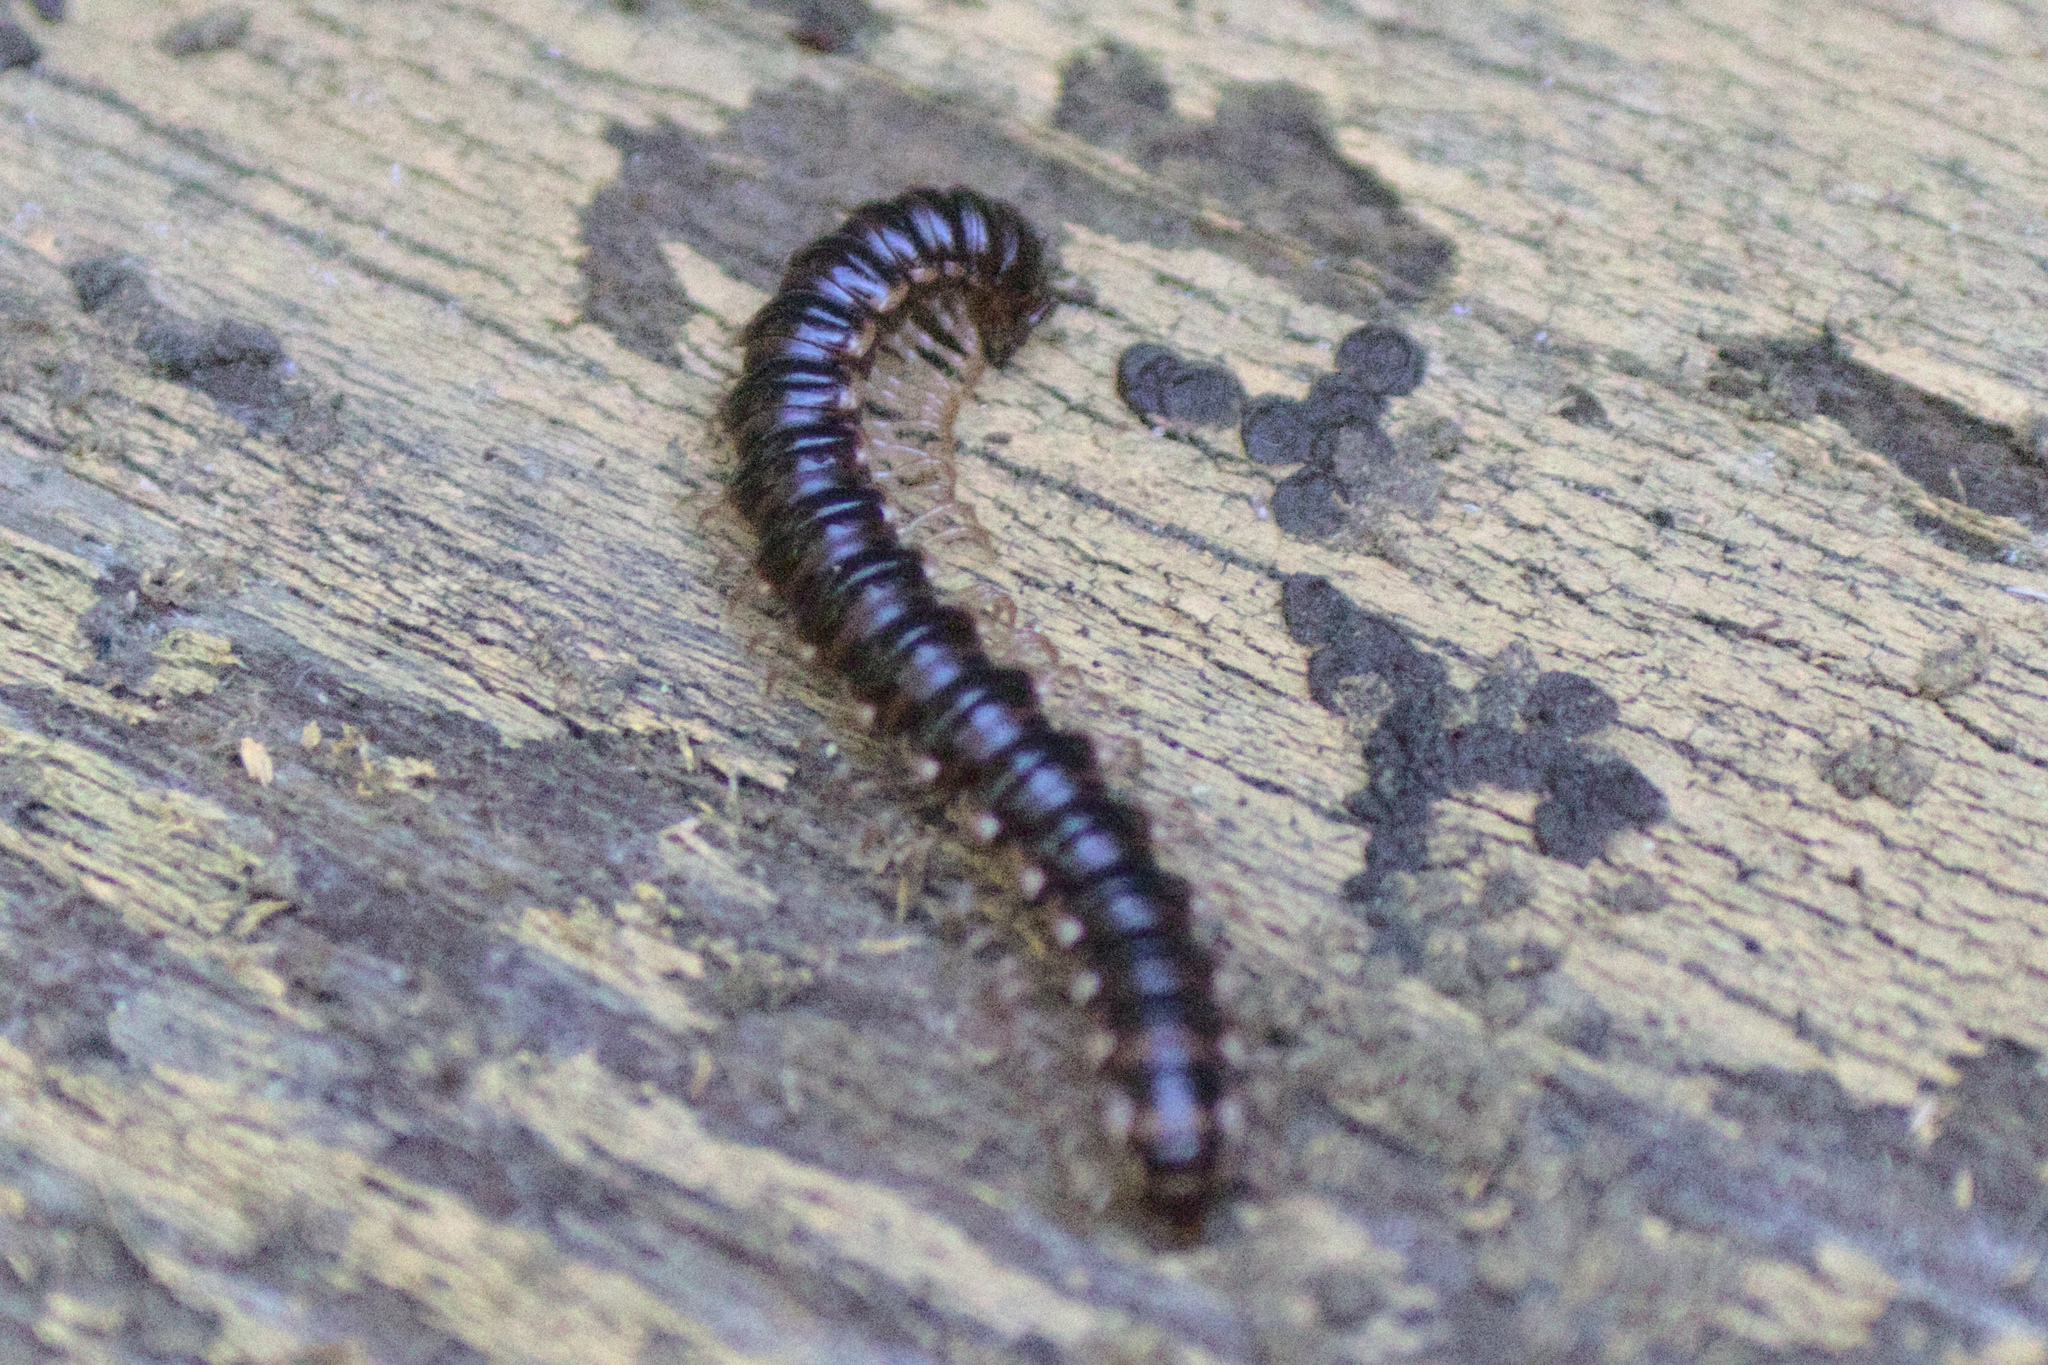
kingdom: Animalia
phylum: Arthropoda
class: Diplopoda
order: Polydesmida
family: Paradoxosomatidae
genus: Oxidus
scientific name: Oxidus gracilis
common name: Greenhouse millipede
